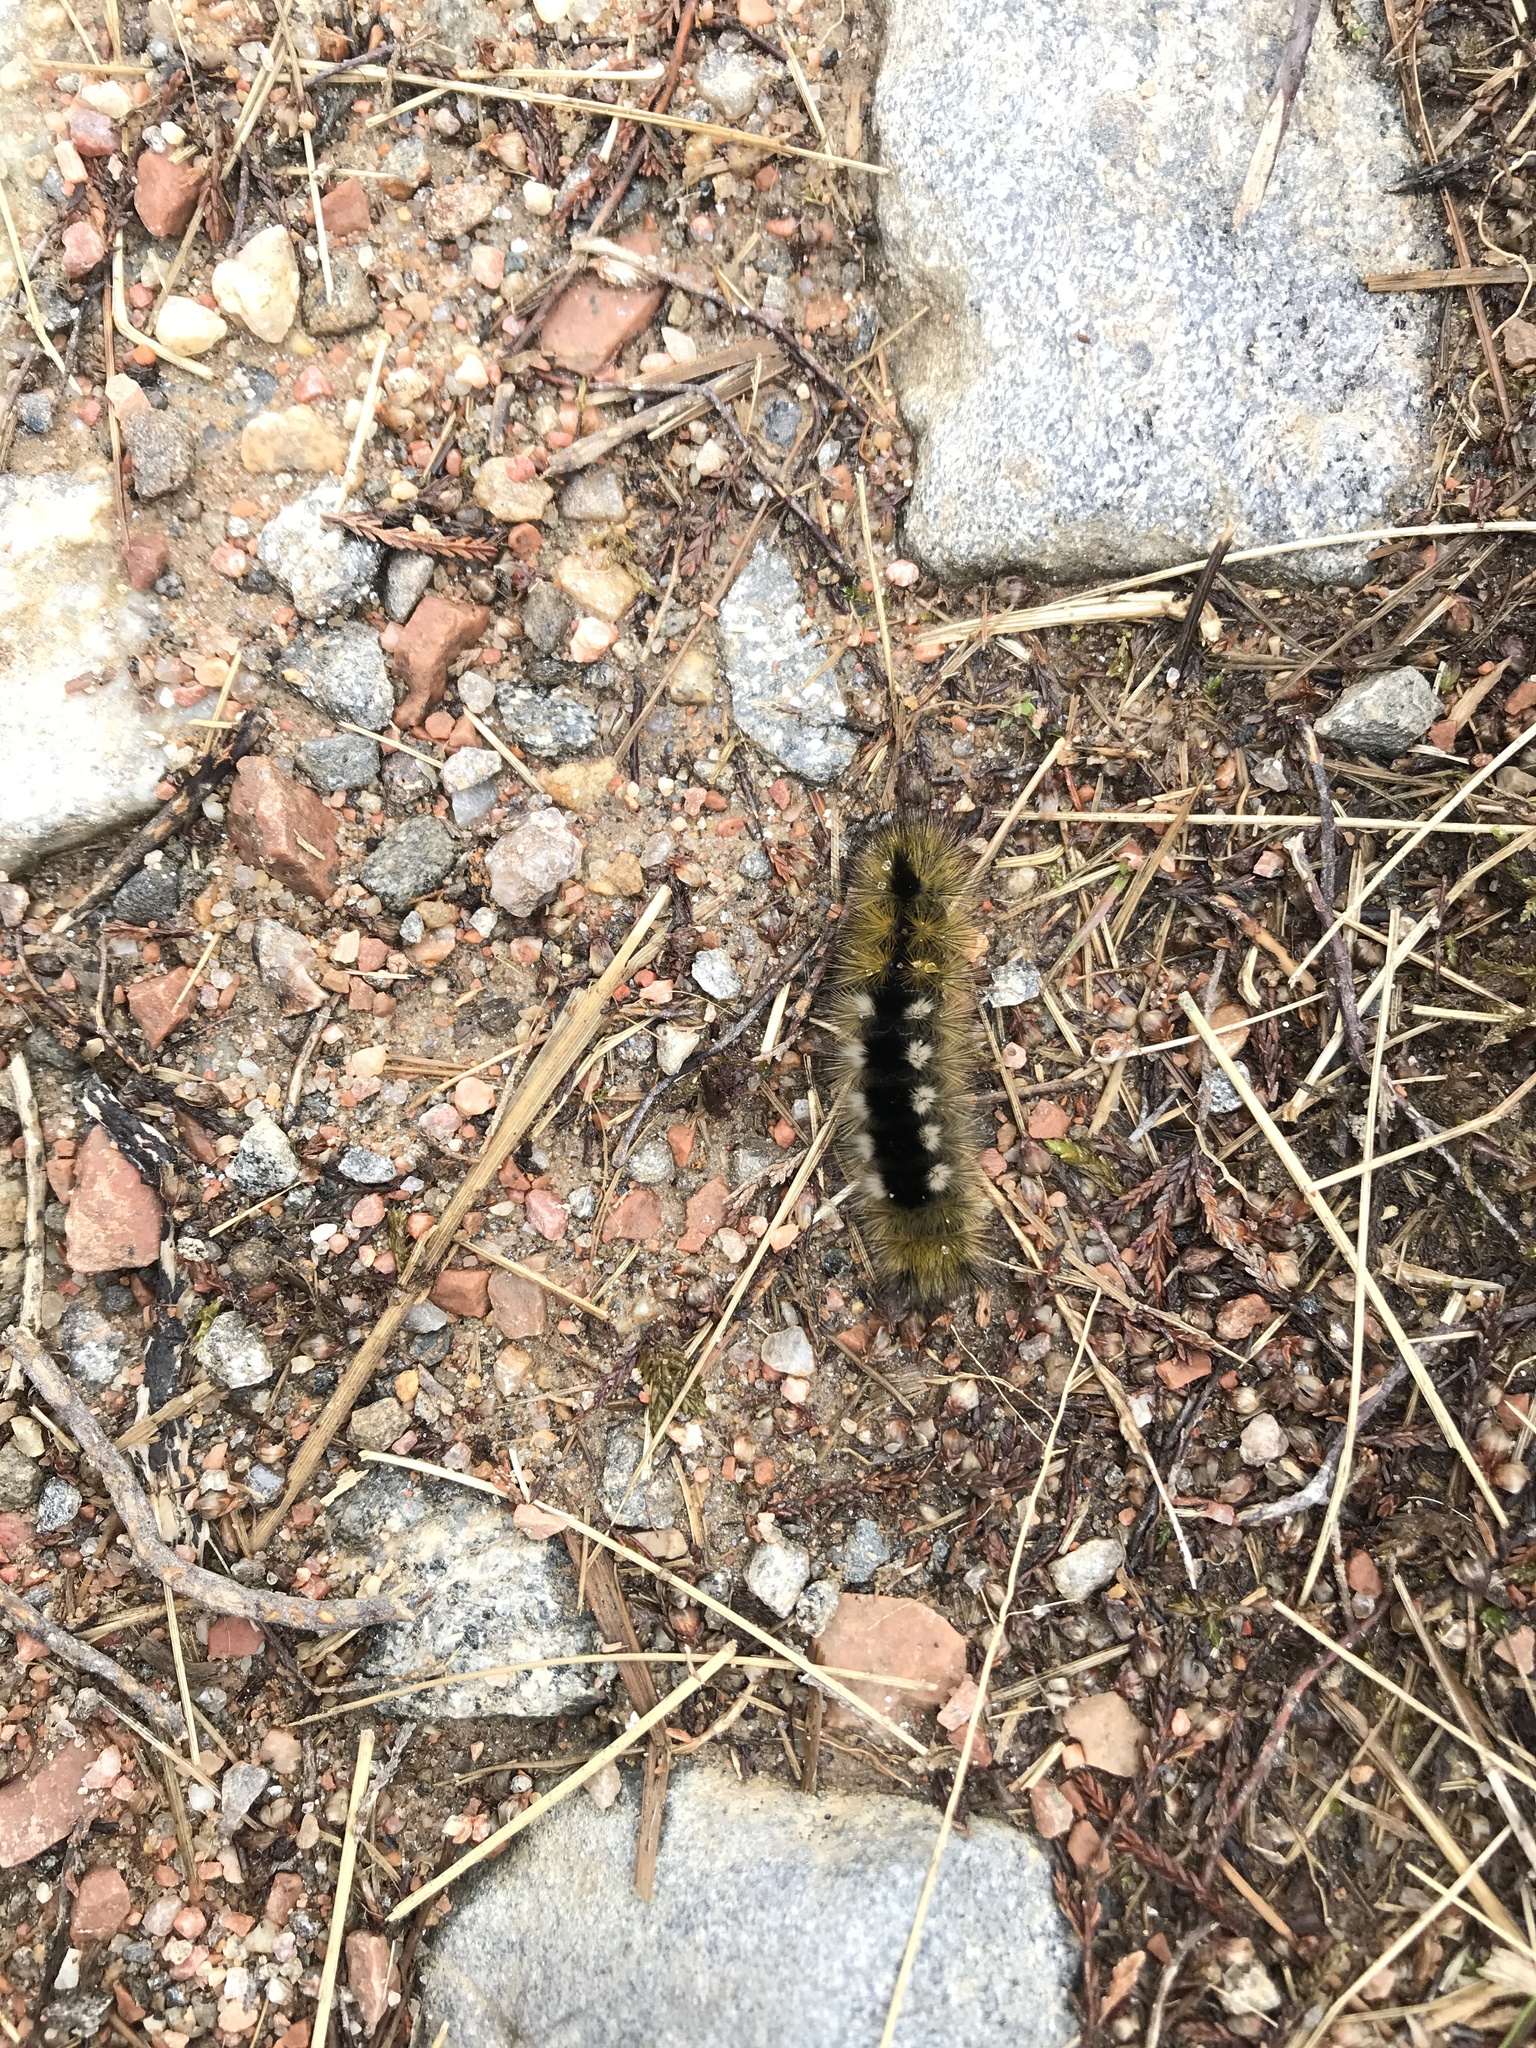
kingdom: Animalia
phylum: Arthropoda
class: Insecta
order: Lepidoptera
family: Erebidae
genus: Calliteara
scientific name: Calliteara Dicallomera fascelina
